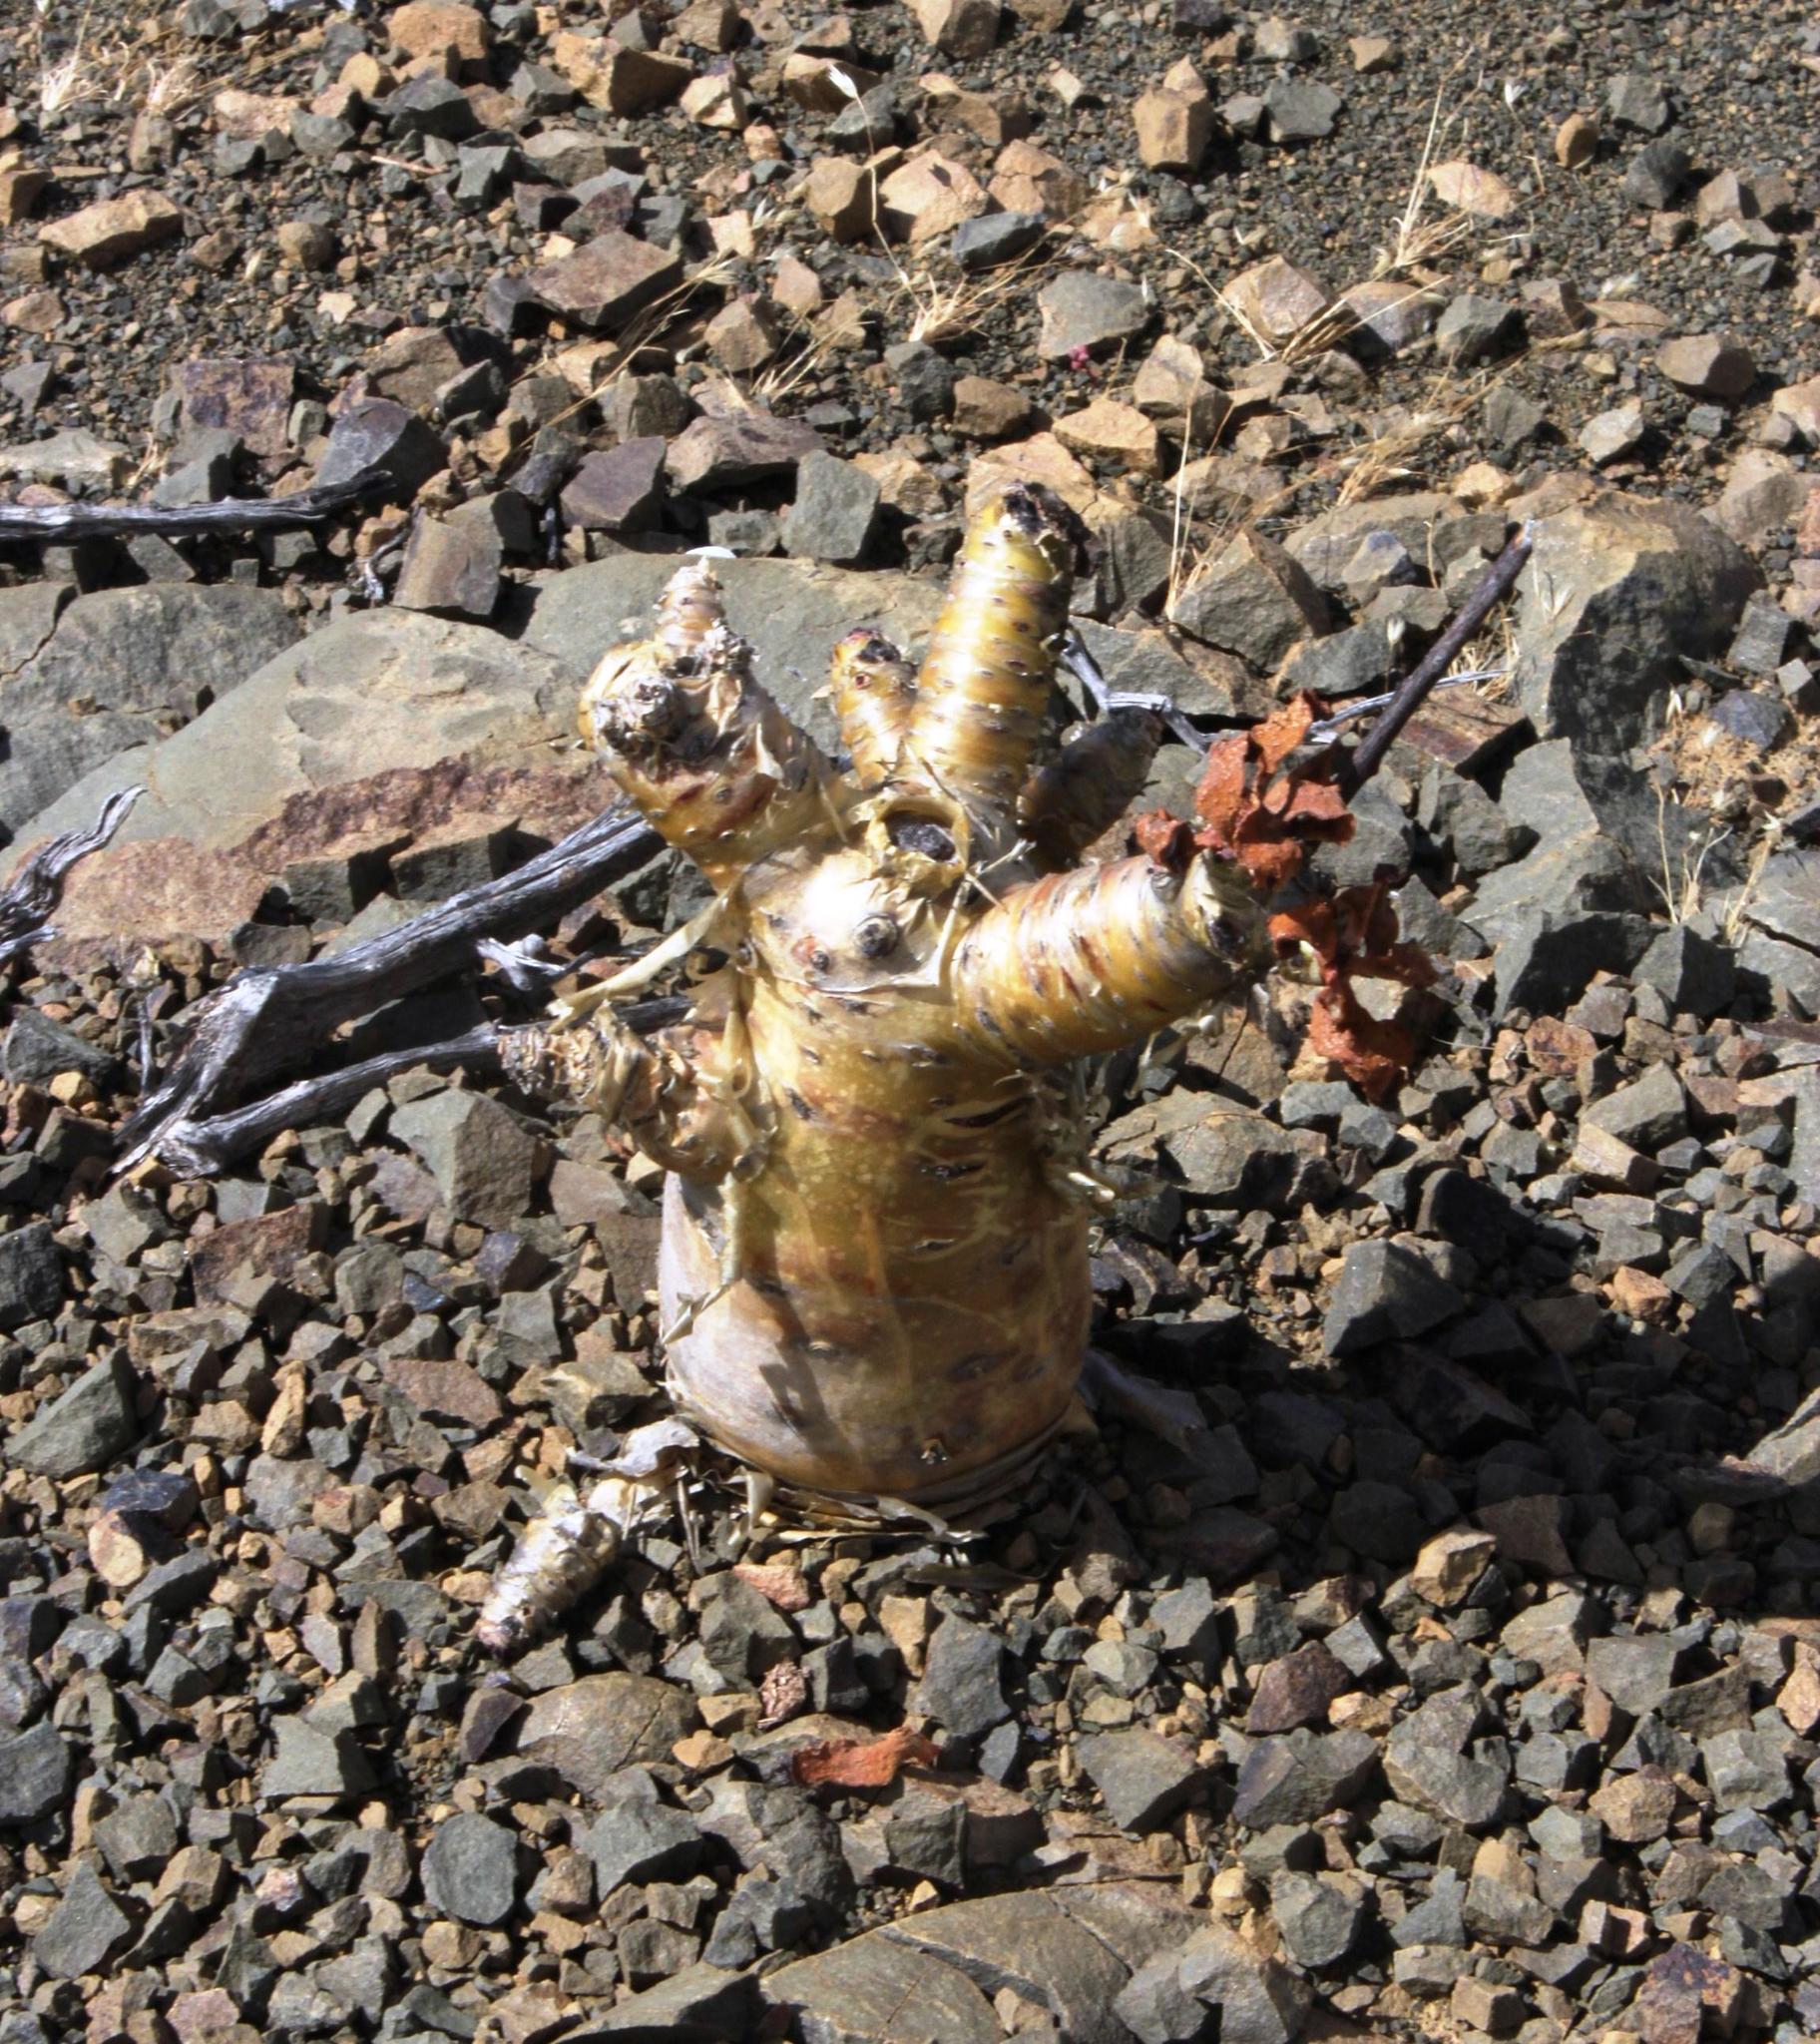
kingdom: Plantae
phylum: Tracheophyta
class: Magnoliopsida
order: Saxifragales
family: Crassulaceae
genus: Tylecodon
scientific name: Tylecodon paniculatus
